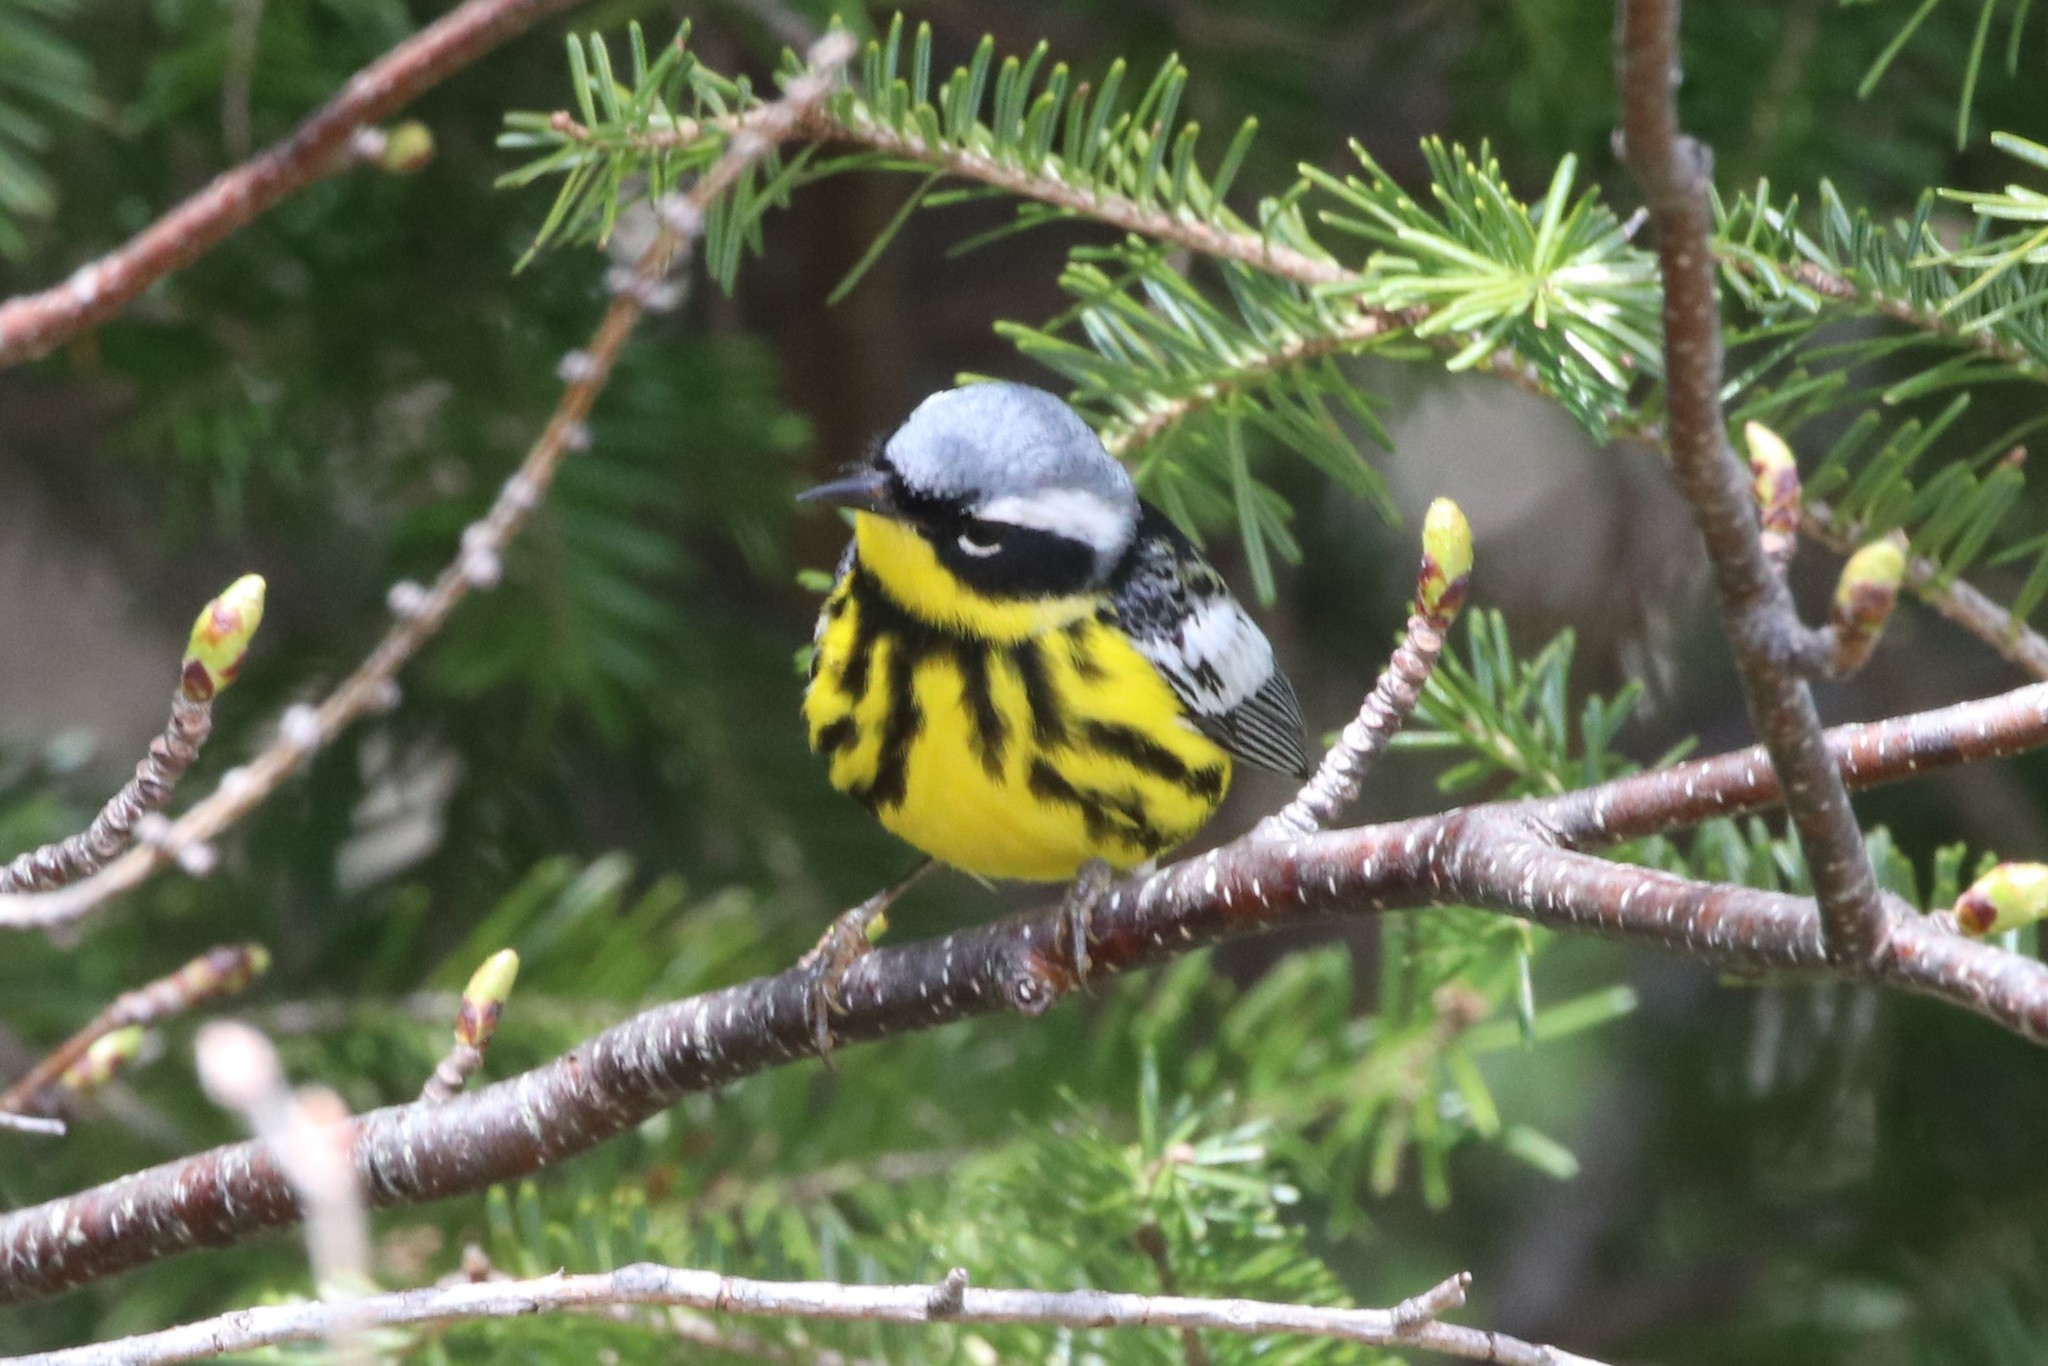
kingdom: Animalia
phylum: Chordata
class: Aves
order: Passeriformes
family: Parulidae
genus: Setophaga
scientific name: Setophaga magnolia
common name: Magnolia warbler
